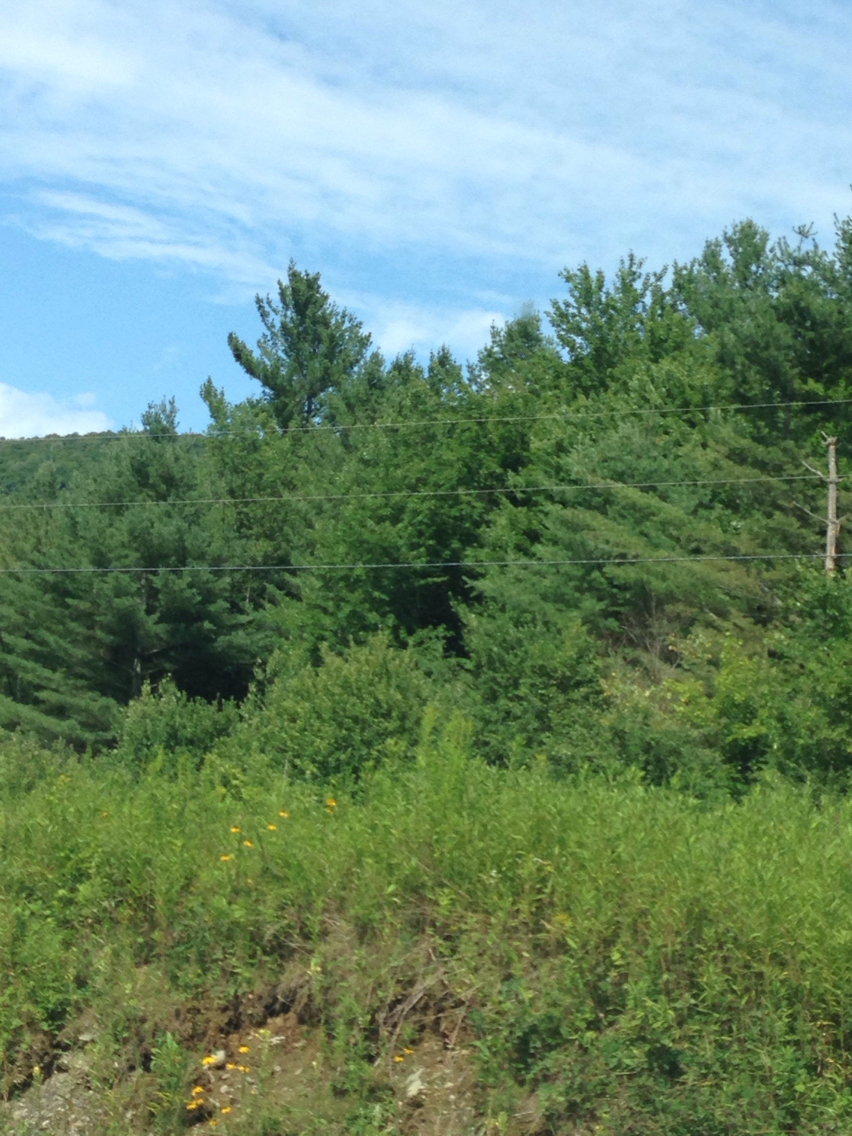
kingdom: Plantae
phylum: Tracheophyta
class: Pinopsida
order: Pinales
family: Pinaceae
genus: Pinus
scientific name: Pinus strobus
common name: Weymouth pine
